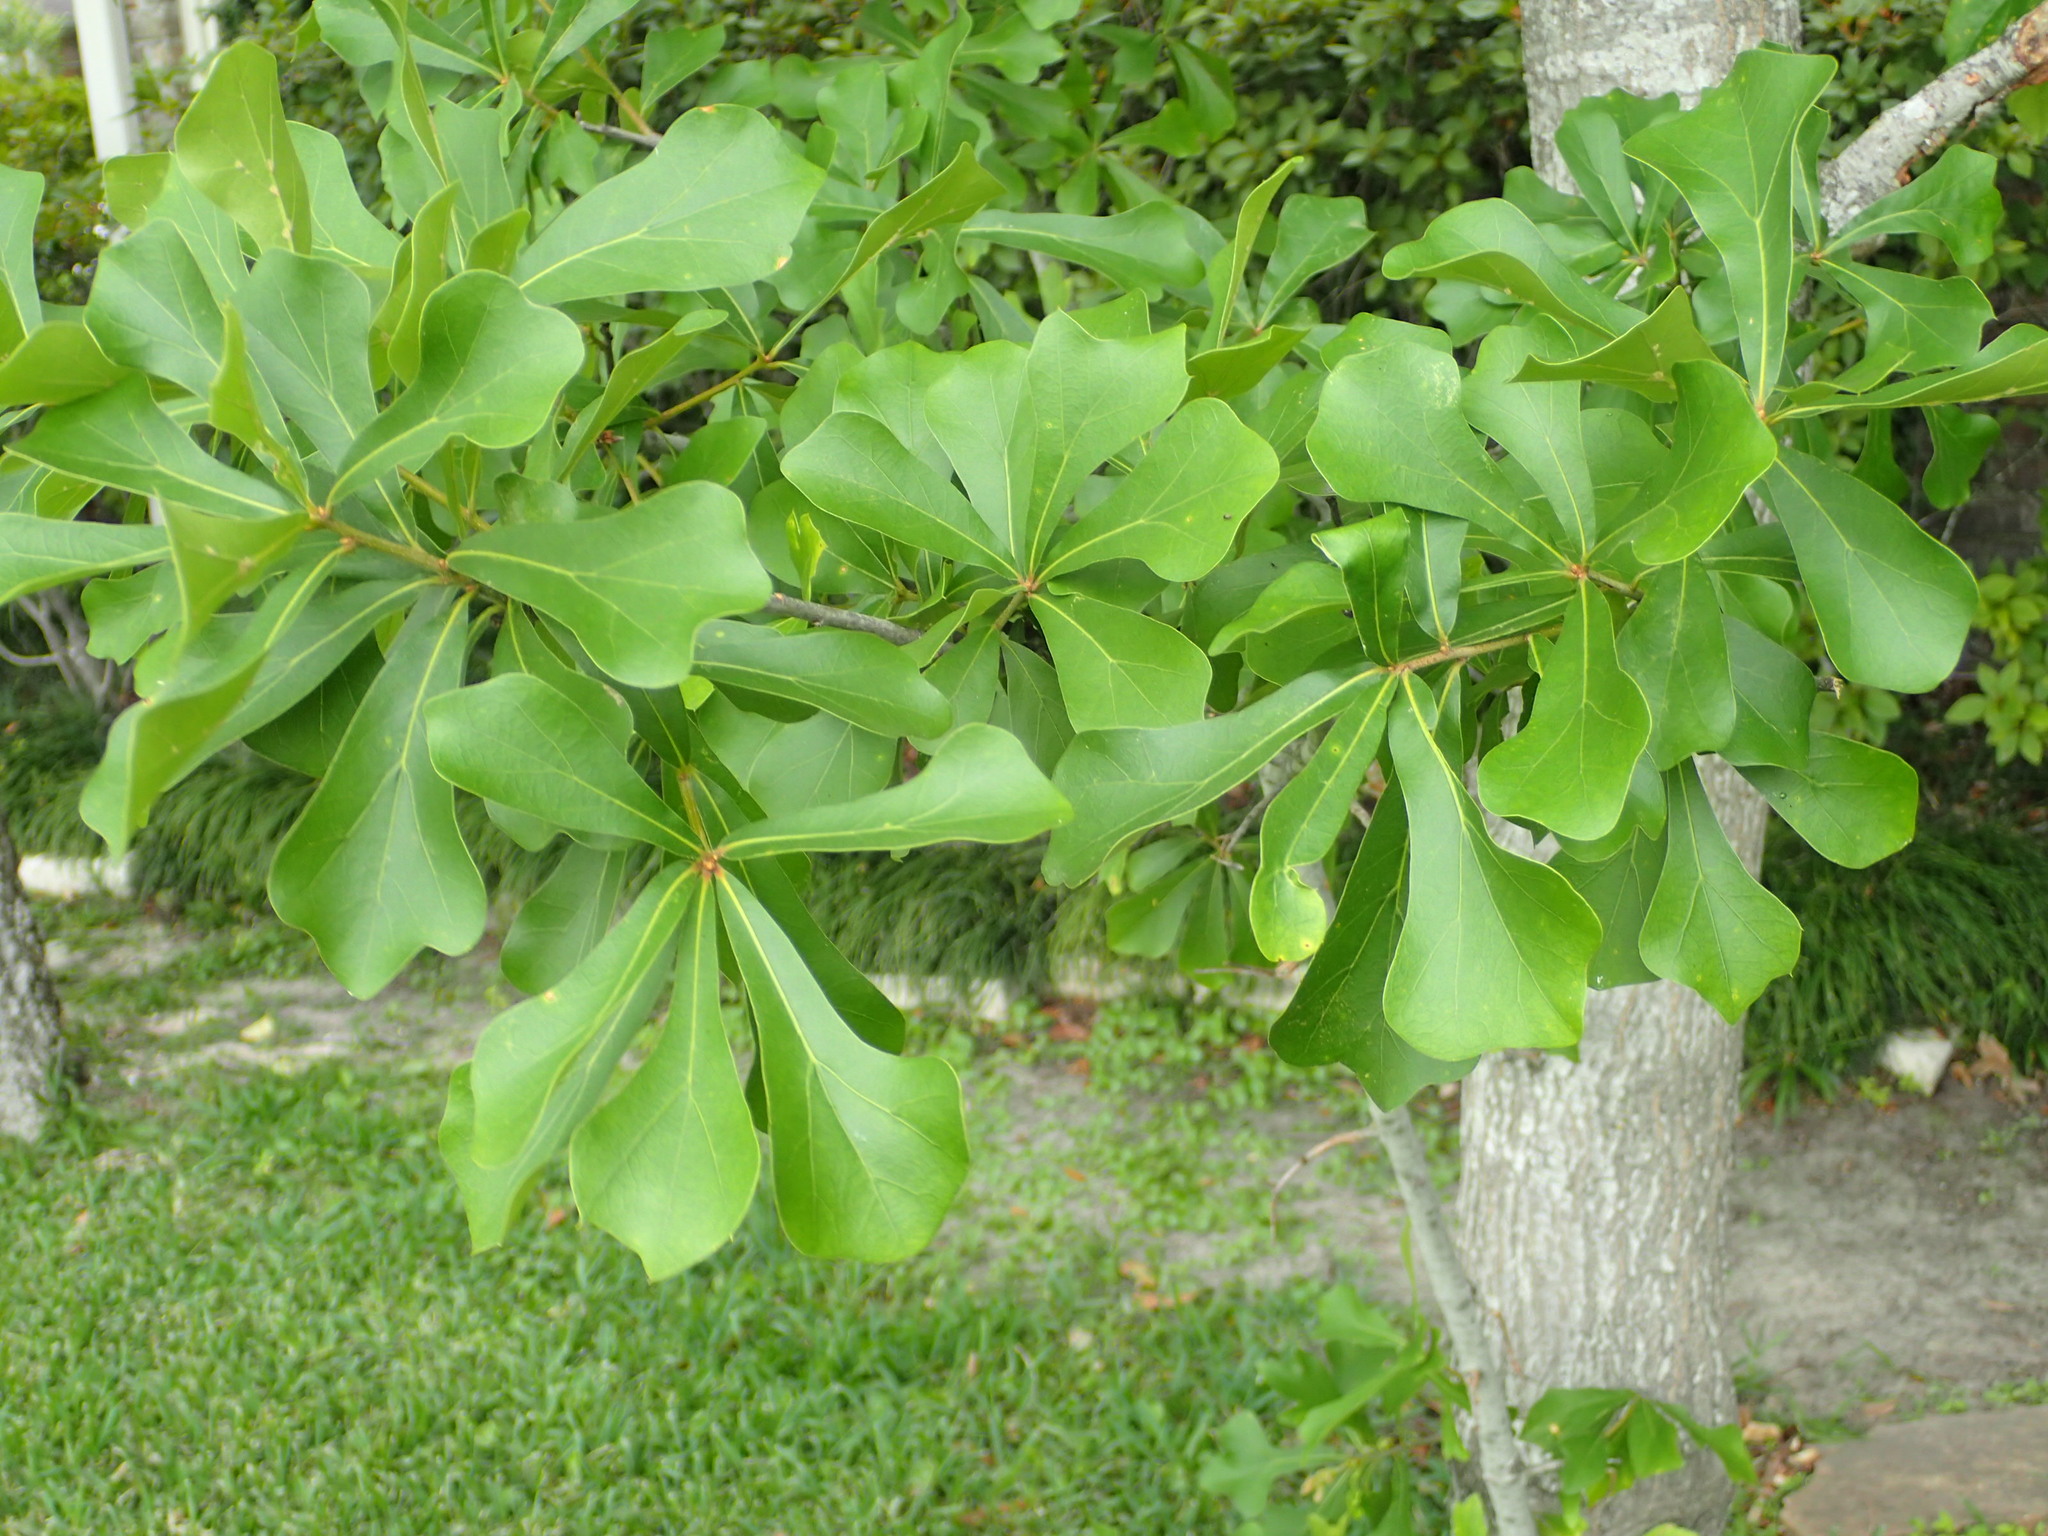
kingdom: Plantae
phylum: Tracheophyta
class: Magnoliopsida
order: Fagales
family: Fagaceae
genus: Quercus
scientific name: Quercus nigra
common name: Water oak
